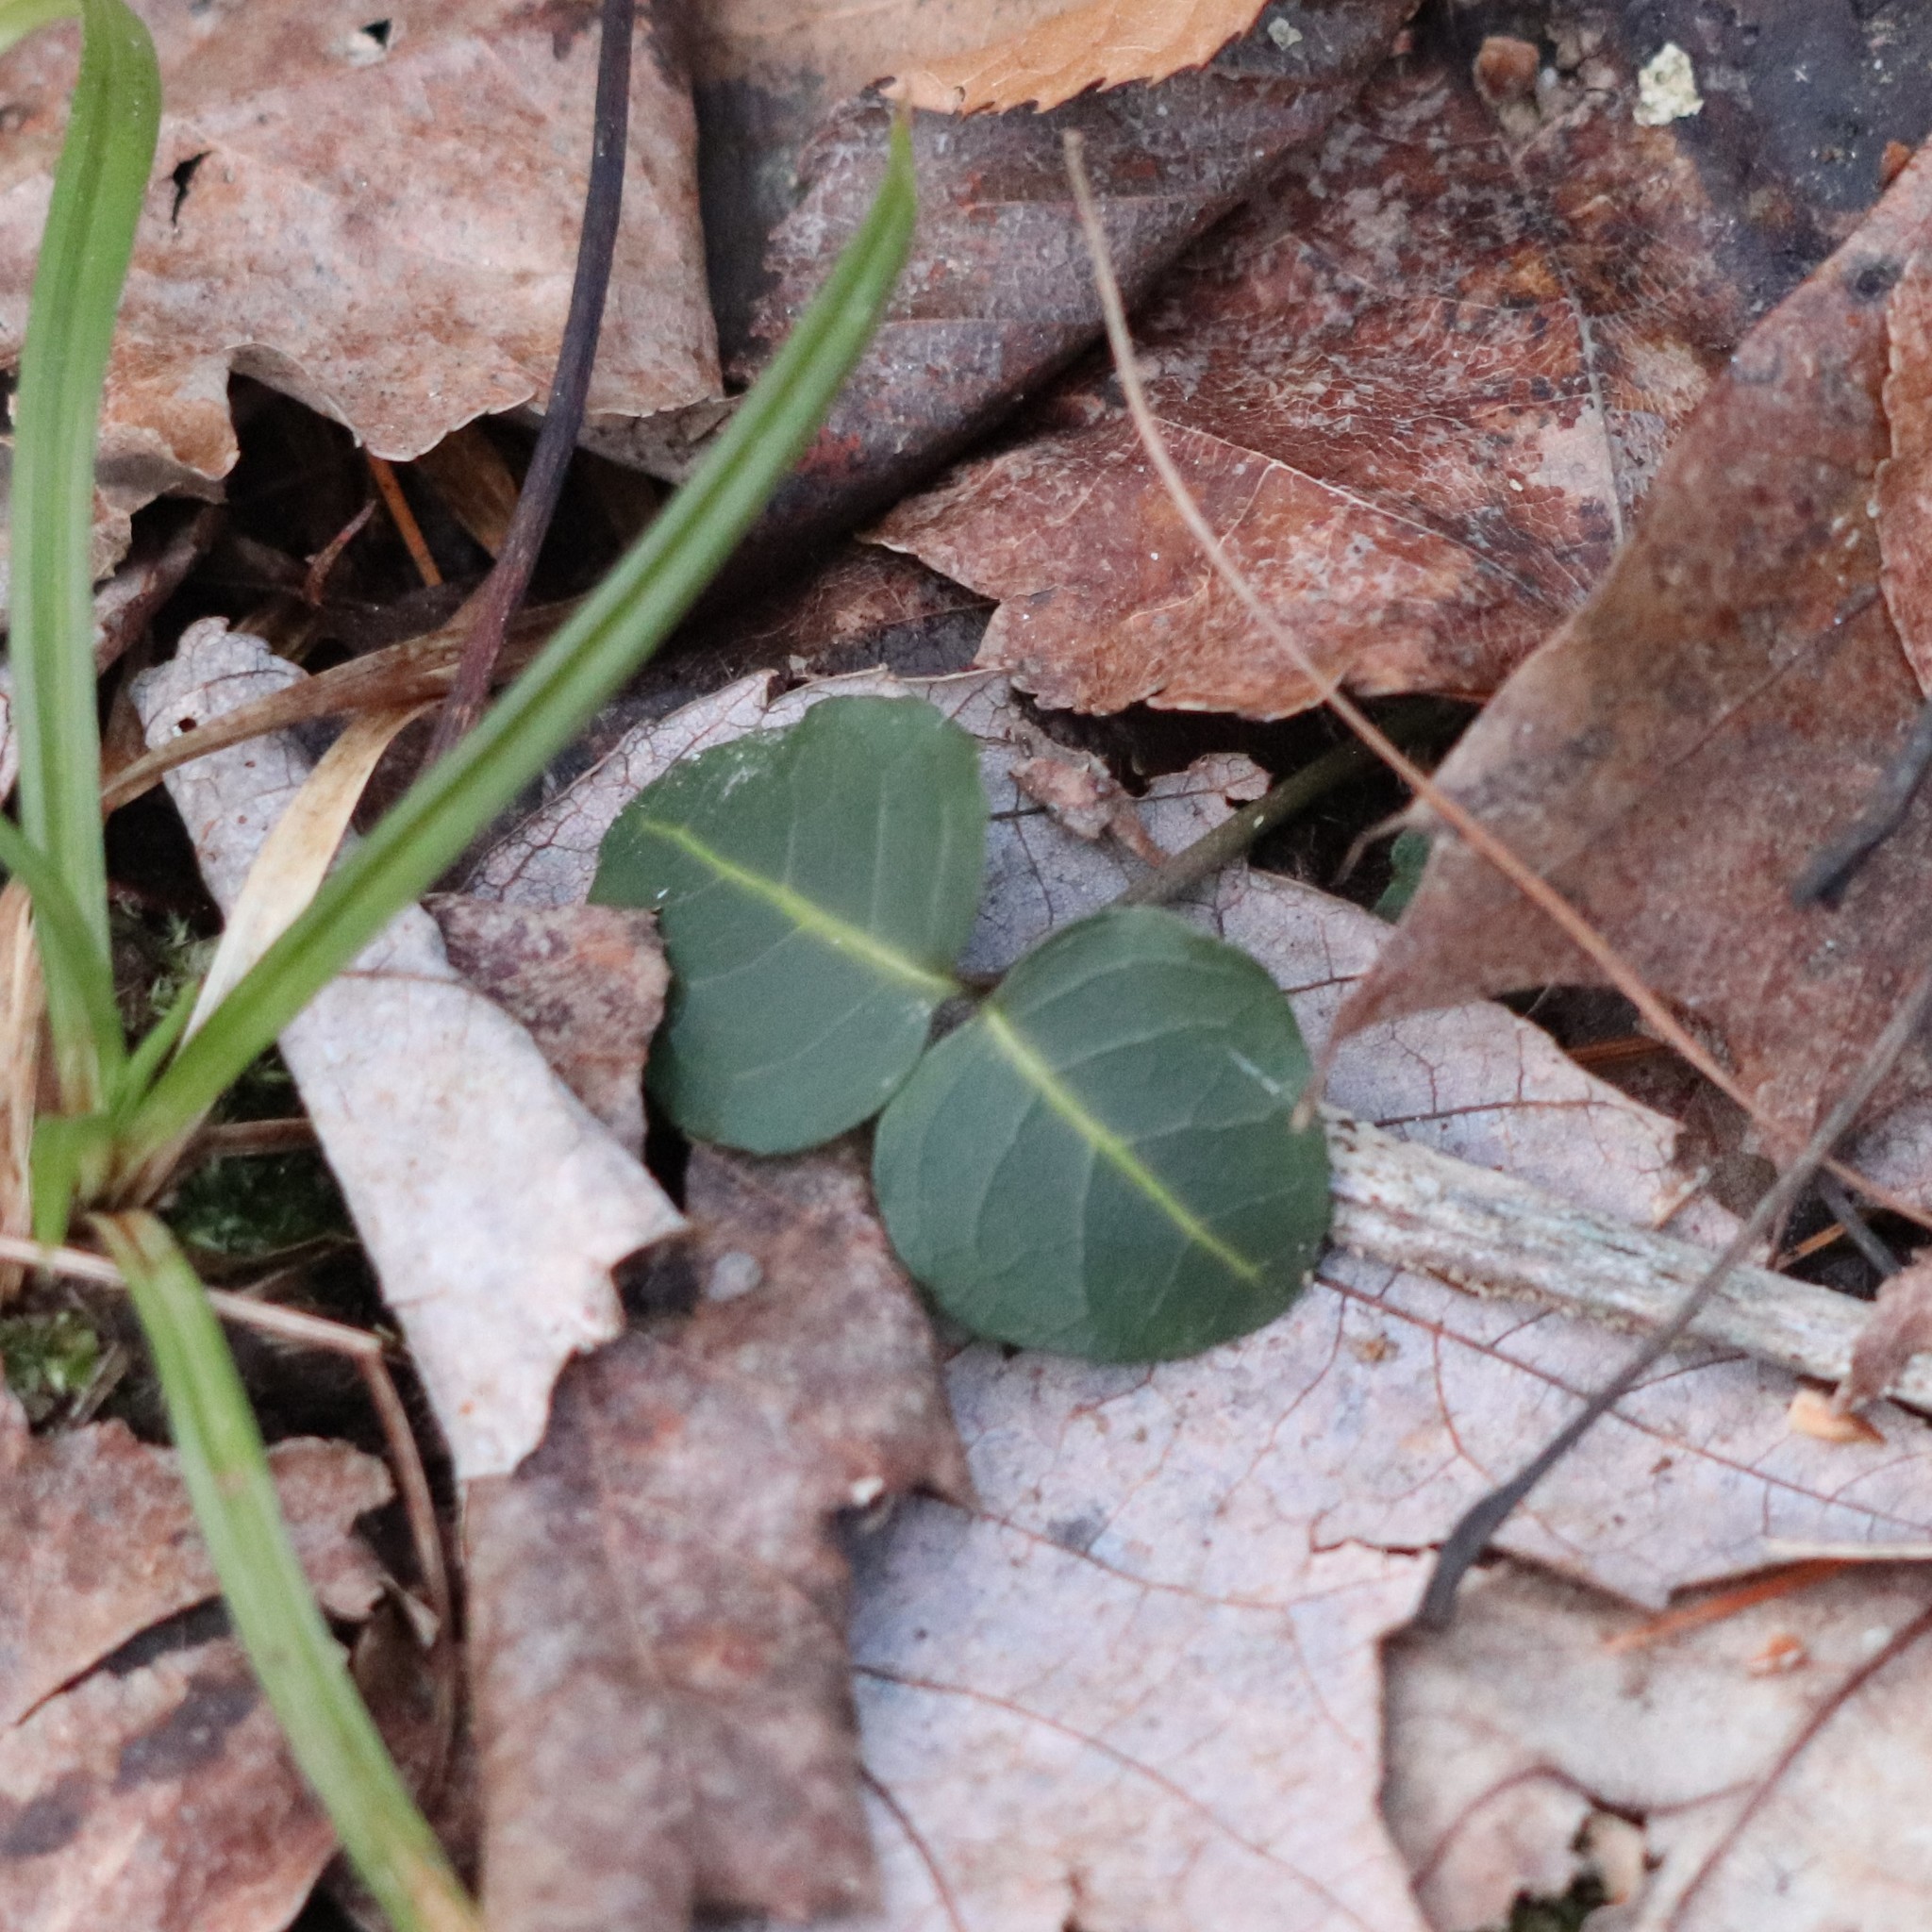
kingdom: Plantae
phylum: Tracheophyta
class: Magnoliopsida
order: Gentianales
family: Rubiaceae
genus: Mitchella
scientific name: Mitchella repens
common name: Partridge-berry
